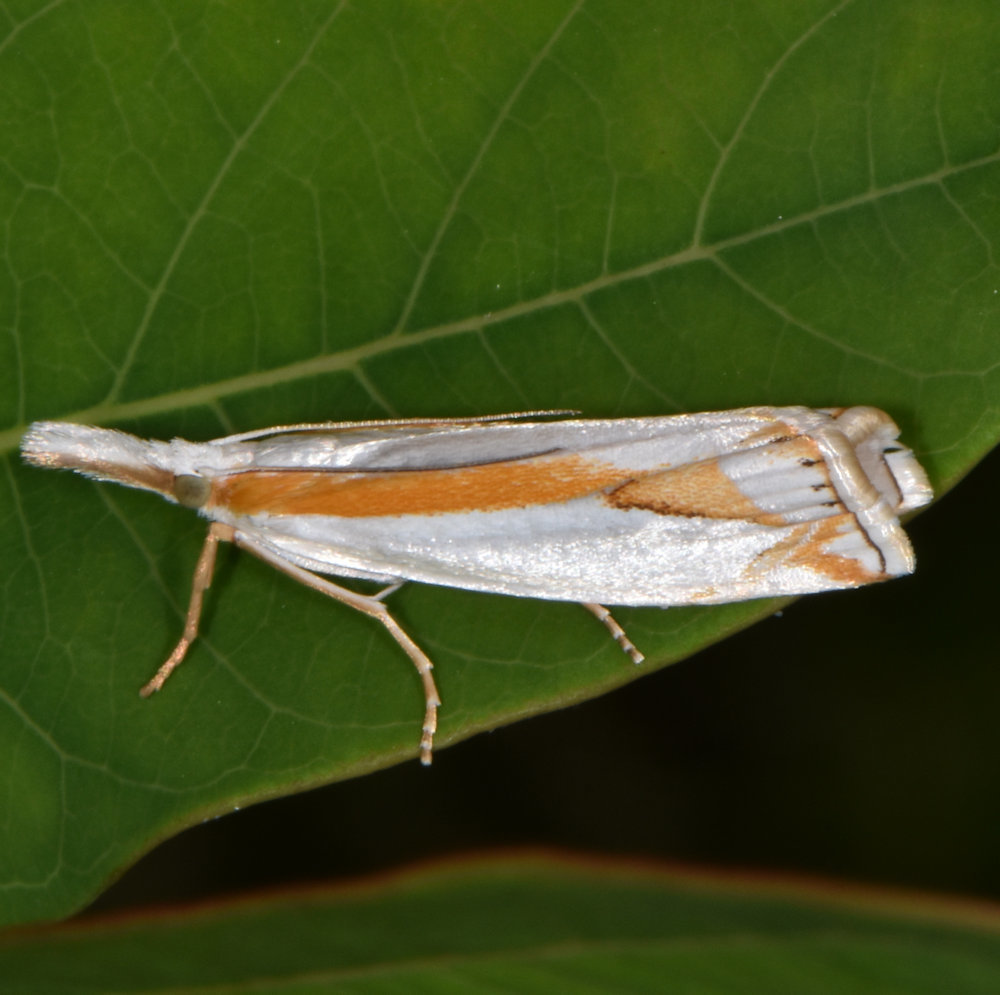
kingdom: Animalia
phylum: Arthropoda
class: Insecta
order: Lepidoptera
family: Crambidae
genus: Crambus
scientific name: Crambus girardellus
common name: Girard's grass-veneer
